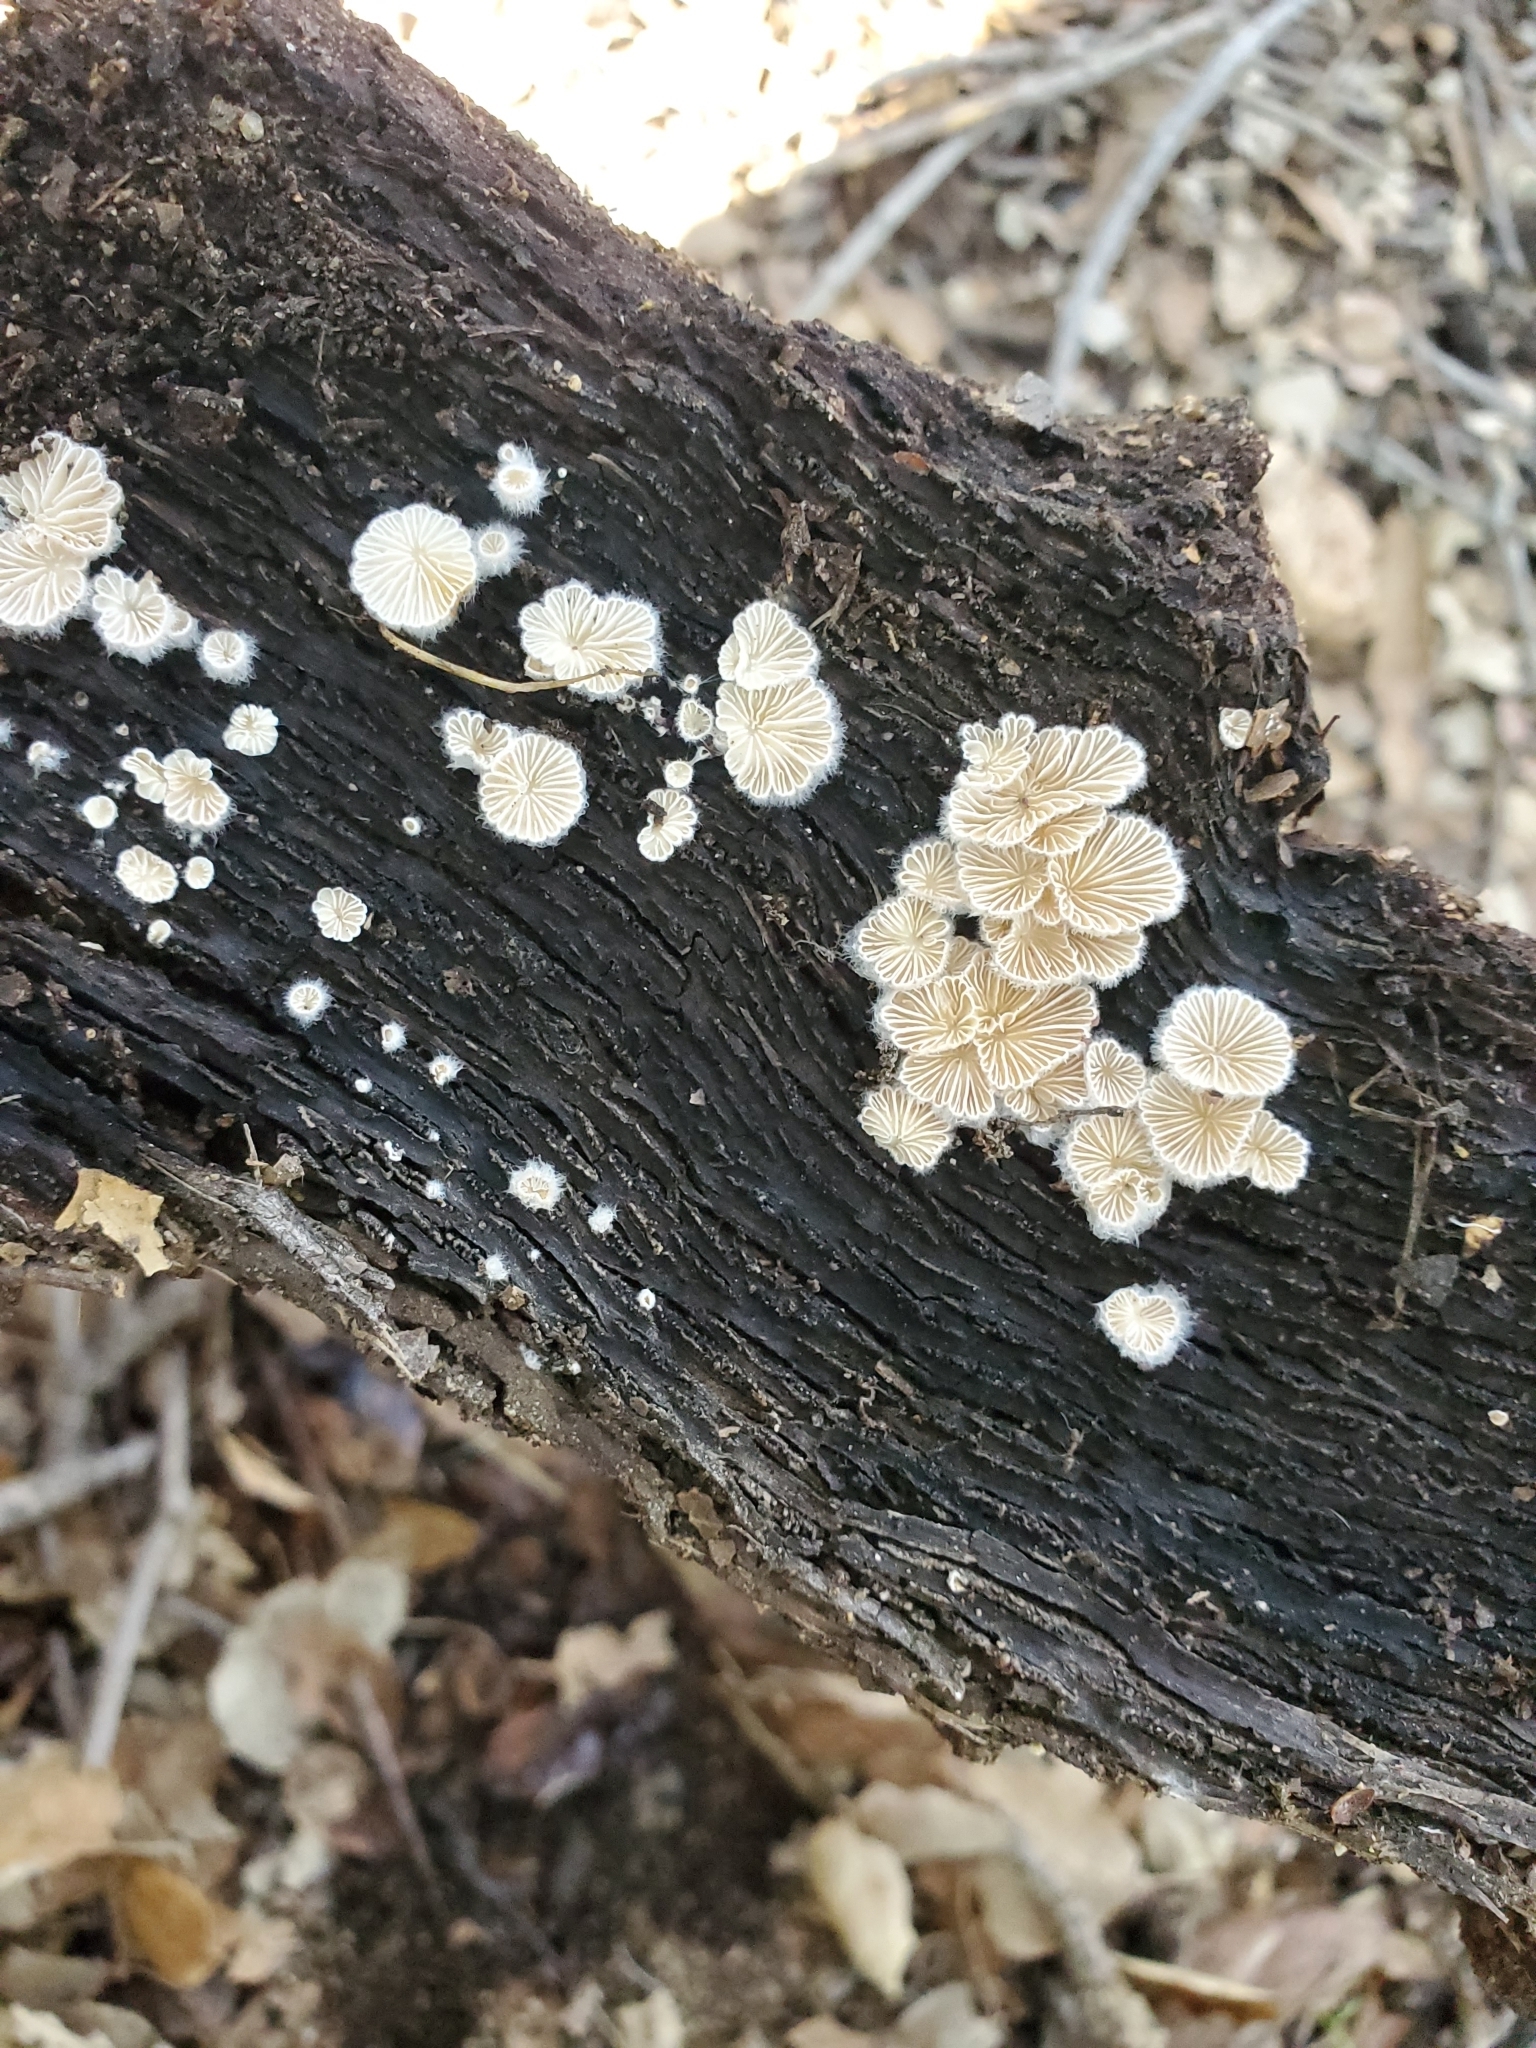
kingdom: Fungi
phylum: Basidiomycota
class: Agaricomycetes
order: Agaricales
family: Schizophyllaceae
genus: Schizophyllum
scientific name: Schizophyllum commune
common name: Common porecrust
